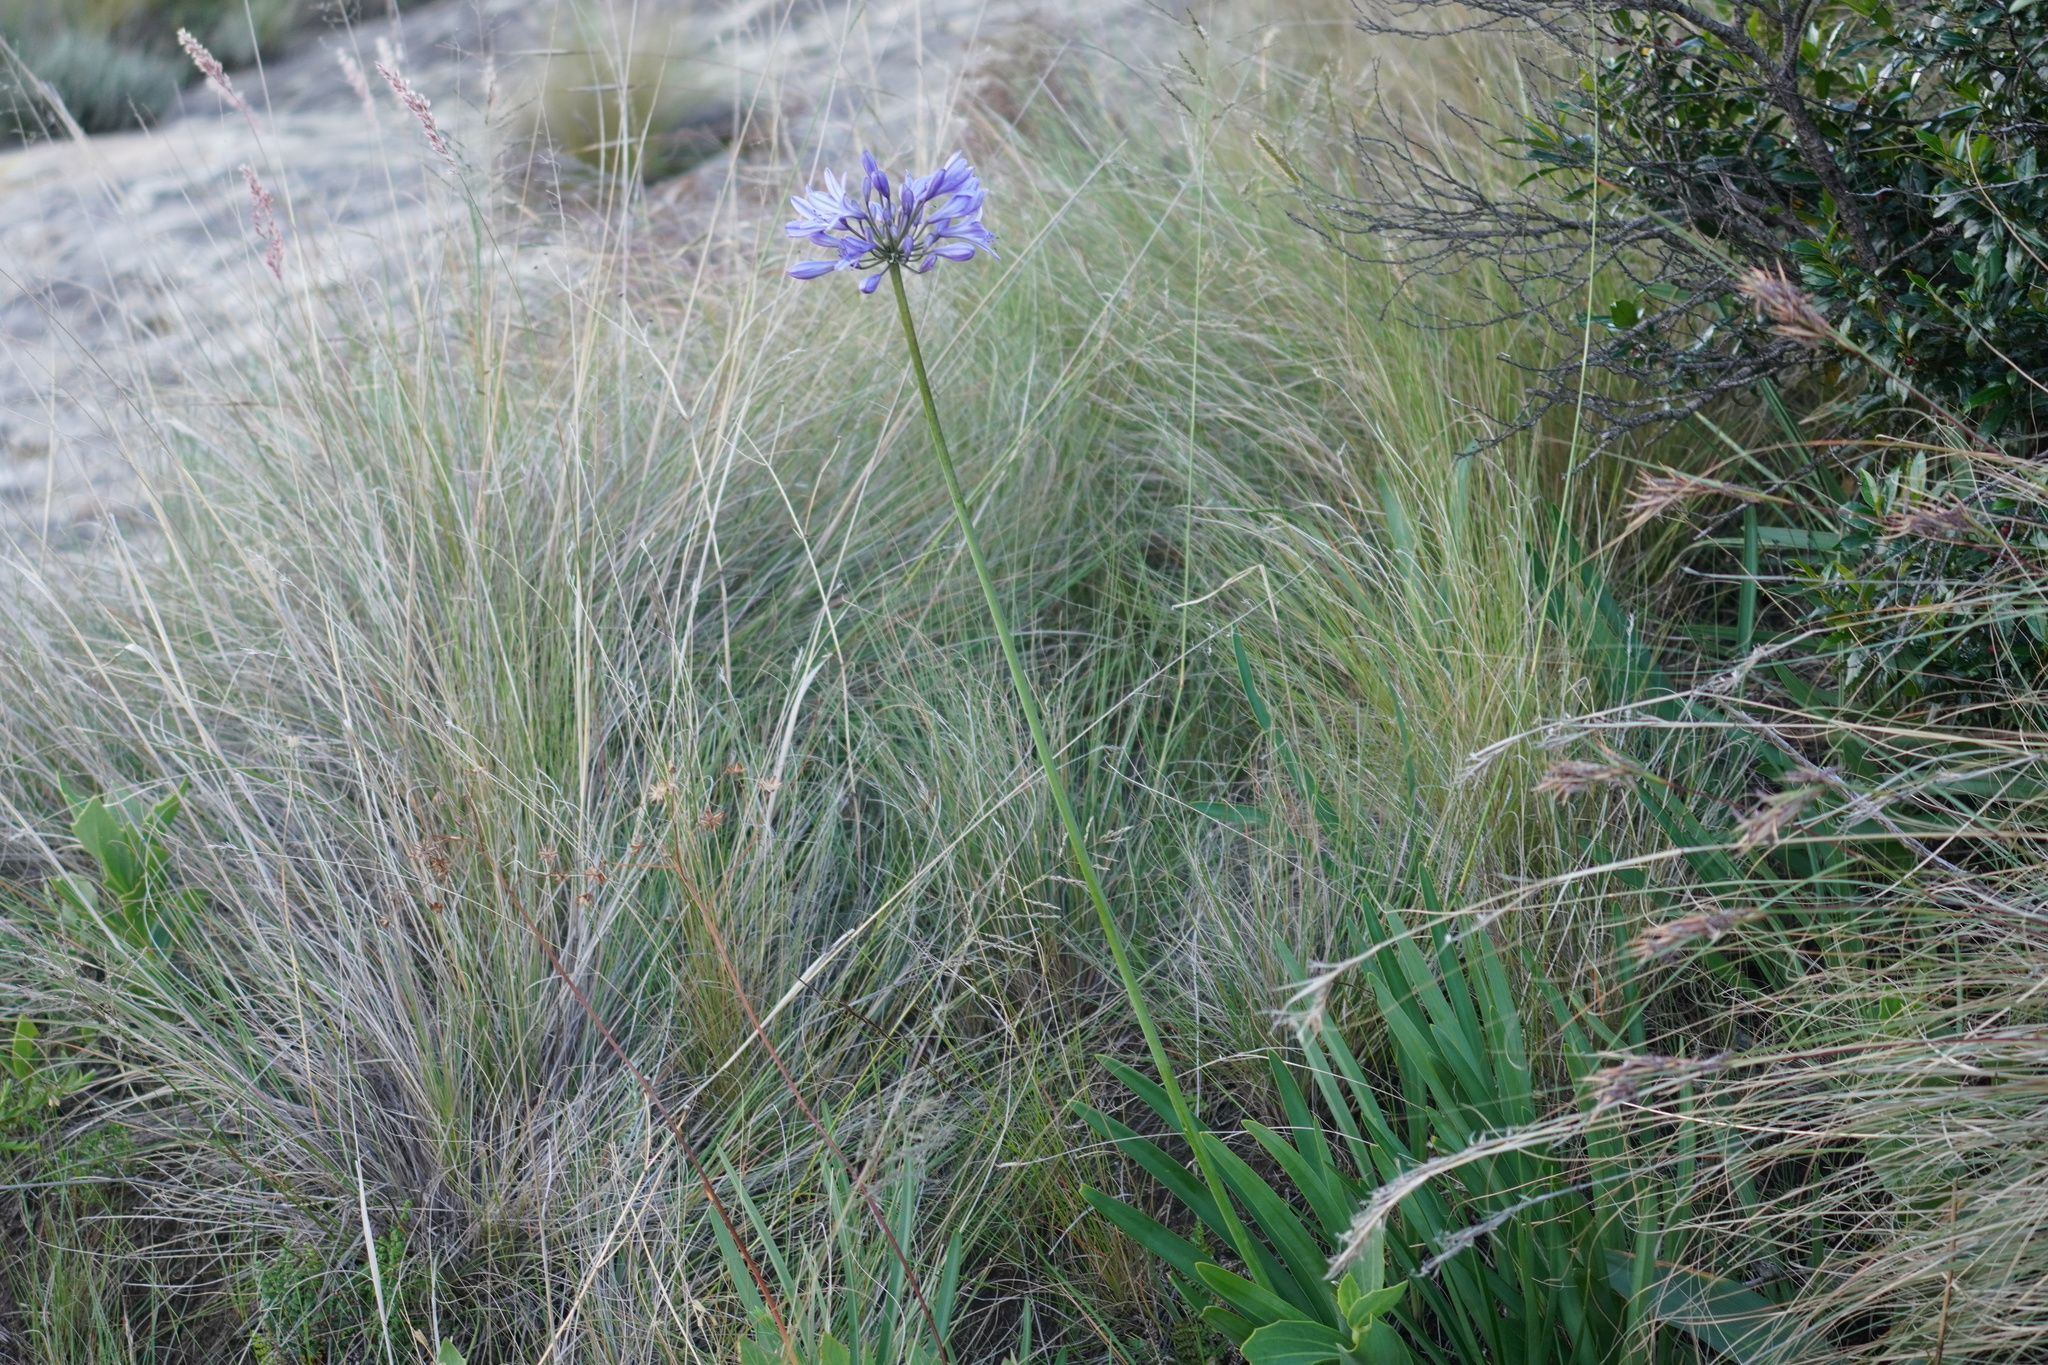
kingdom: Plantae
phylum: Tracheophyta
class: Liliopsida
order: Asparagales
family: Amaryllidaceae
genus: Agapanthus
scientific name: Agapanthus campanulatus
